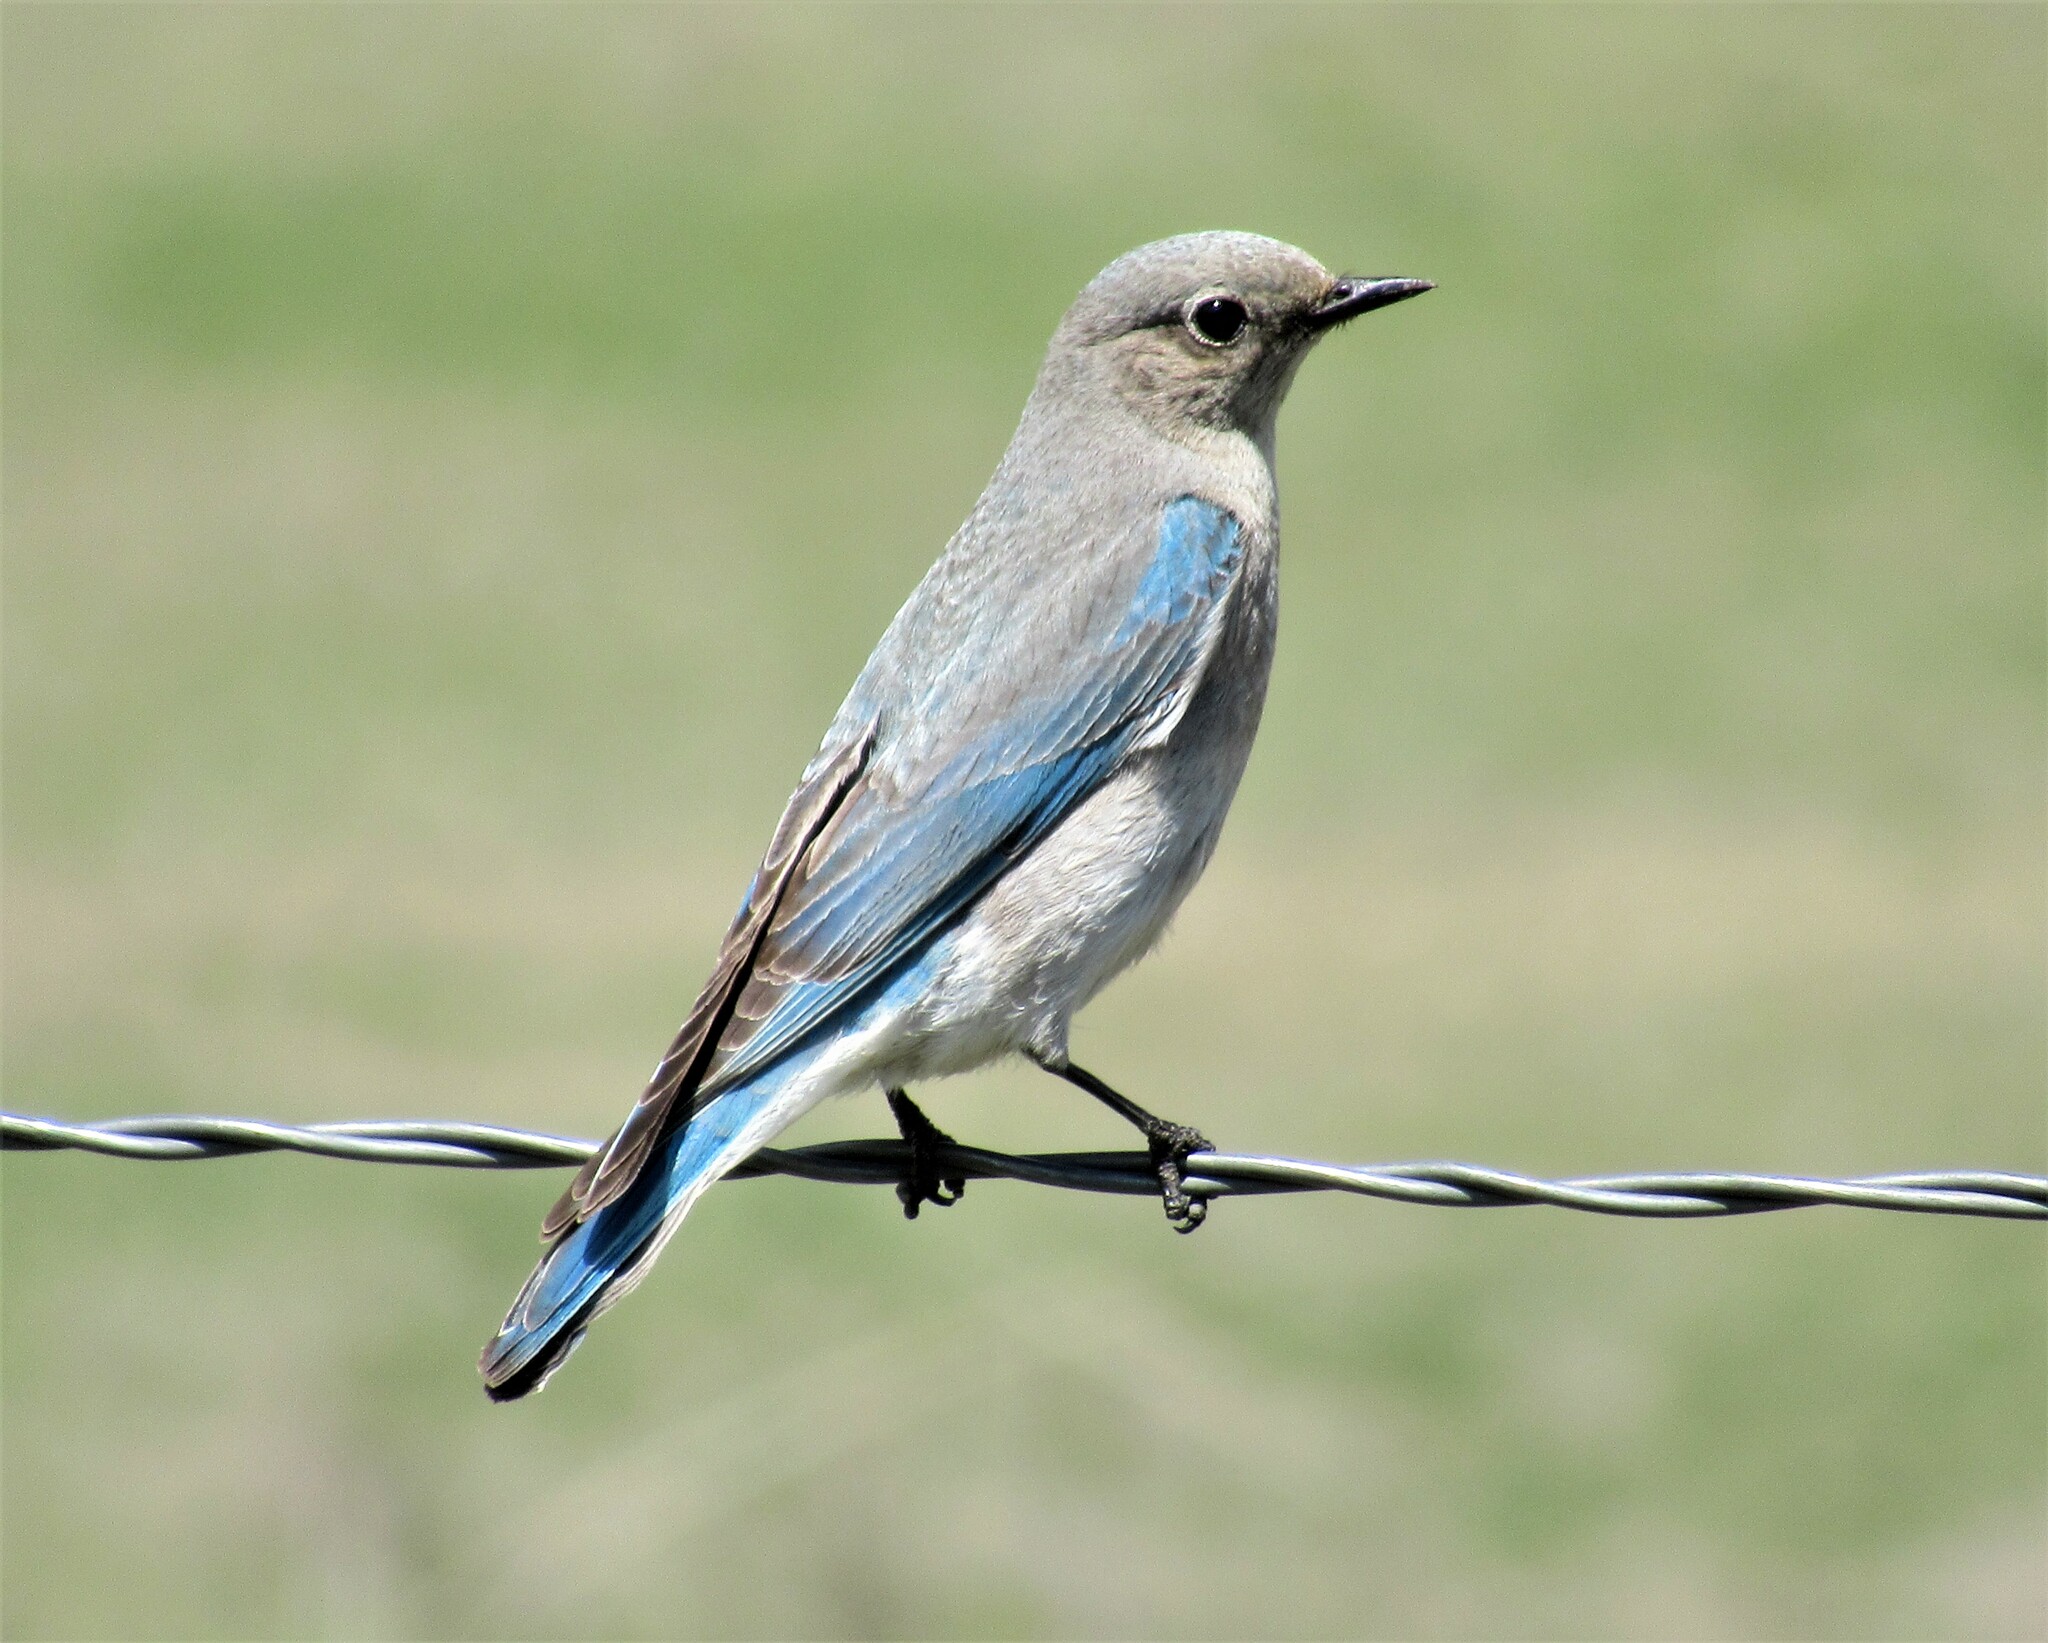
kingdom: Animalia
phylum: Chordata
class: Aves
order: Passeriformes
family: Turdidae
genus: Sialia
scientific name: Sialia currucoides
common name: Mountain bluebird
